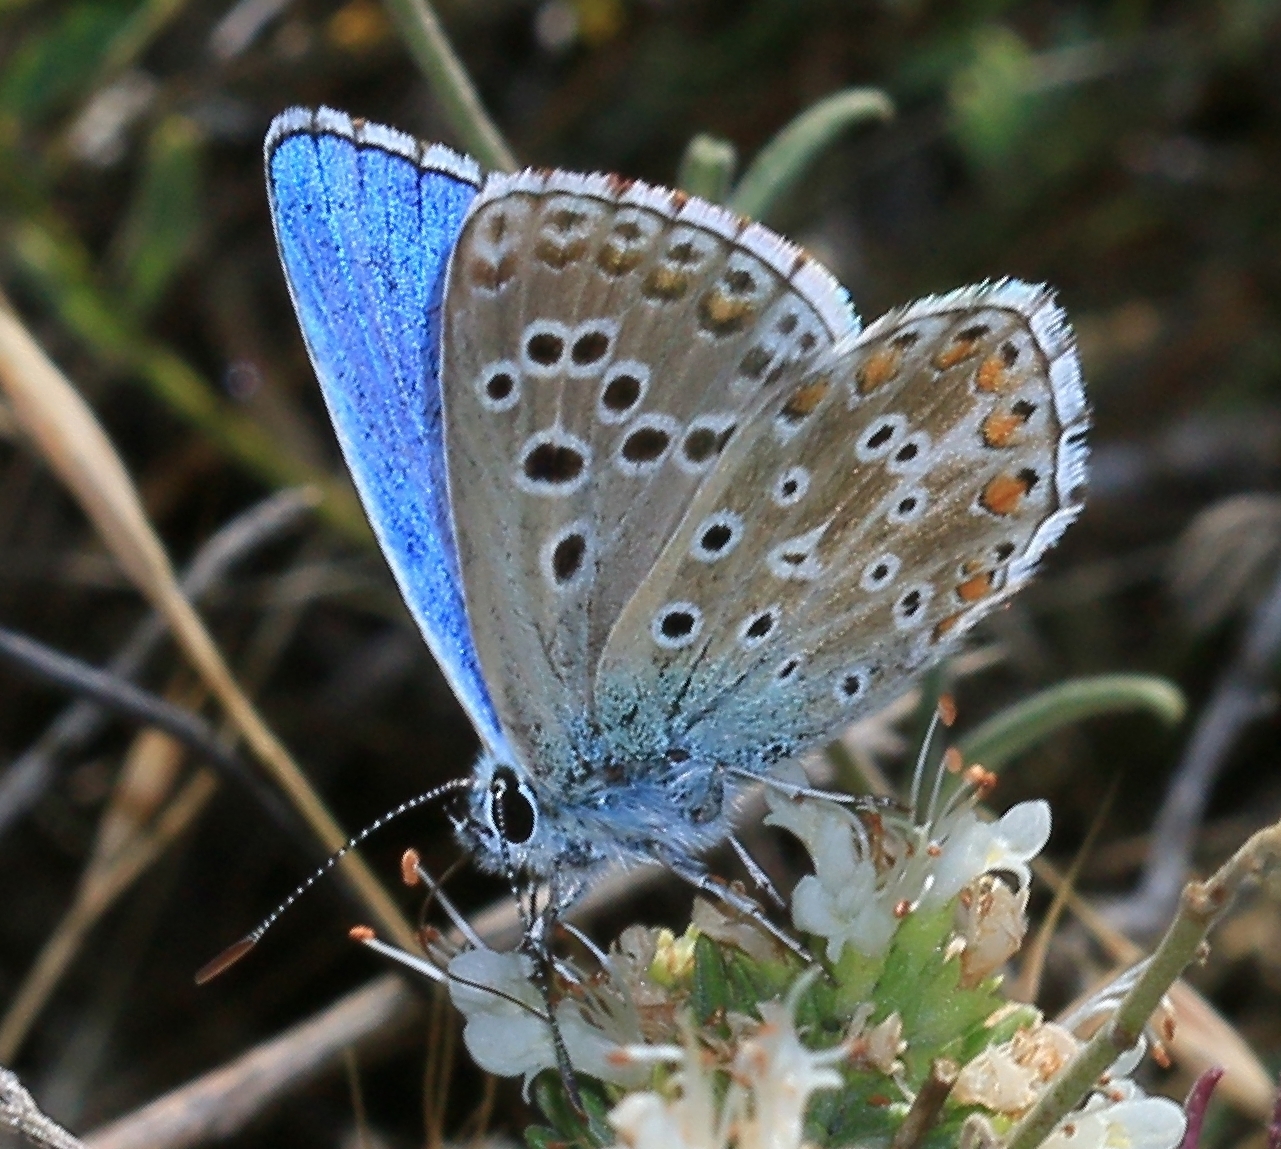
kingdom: Animalia
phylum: Arthropoda
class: Insecta
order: Lepidoptera
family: Lycaenidae
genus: Lysandra
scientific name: Lysandra bellargus
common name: Adonis blue
